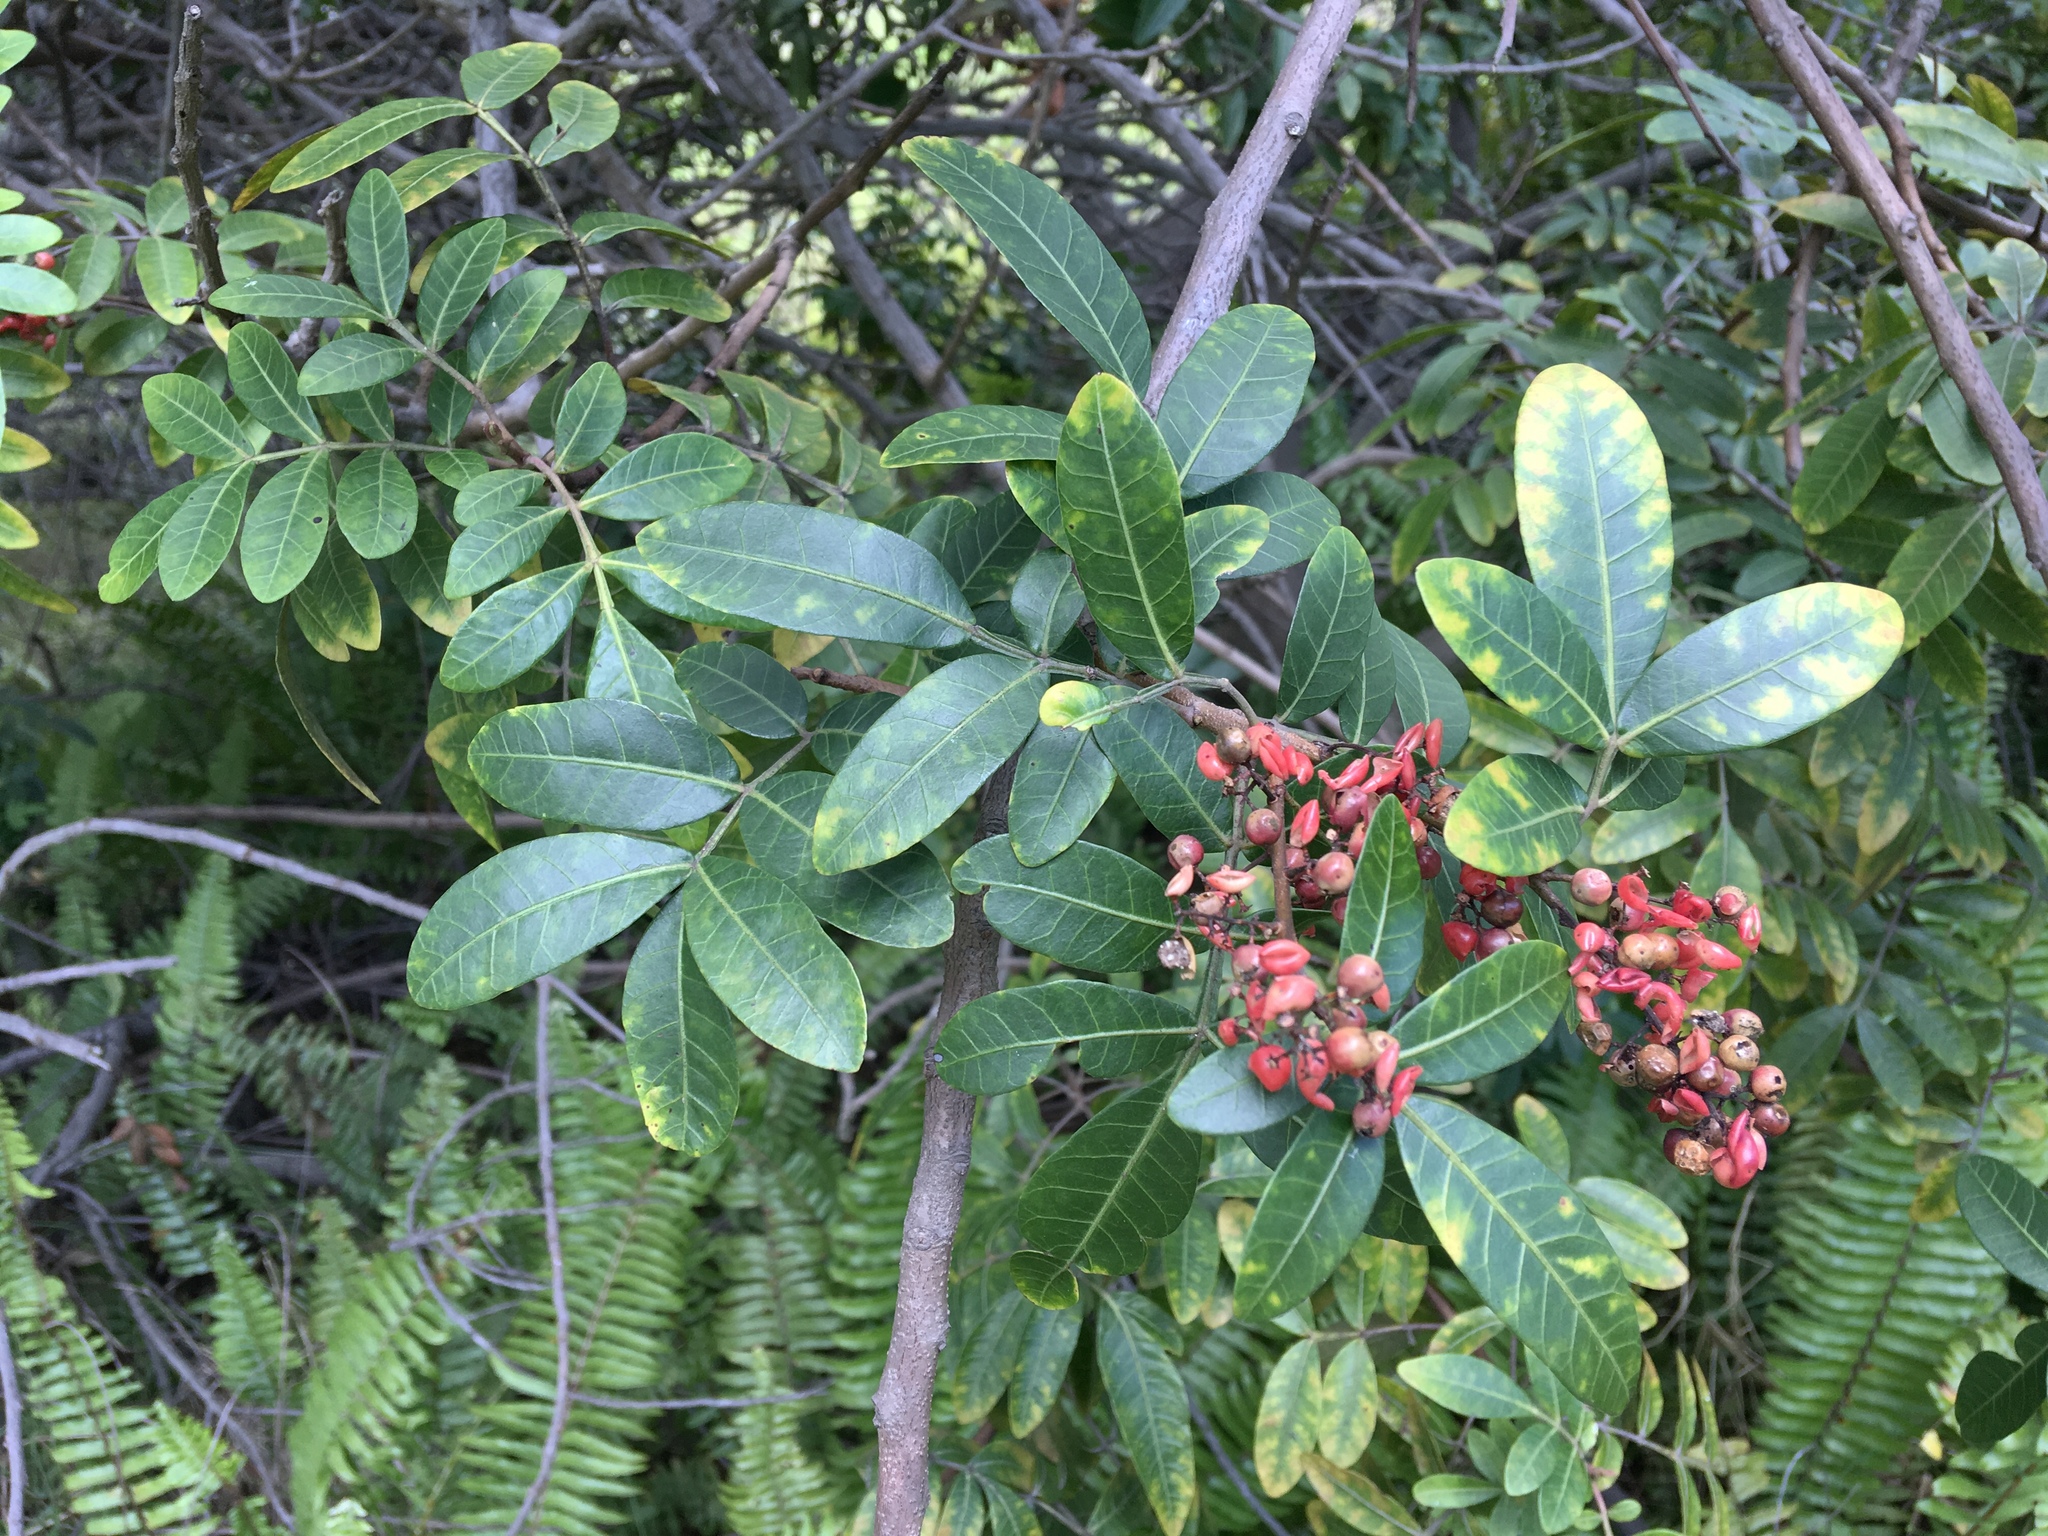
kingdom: Plantae
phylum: Tracheophyta
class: Magnoliopsida
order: Sapindales
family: Anacardiaceae
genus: Schinus
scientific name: Schinus terebinthifolia
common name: Brazilian peppertree
